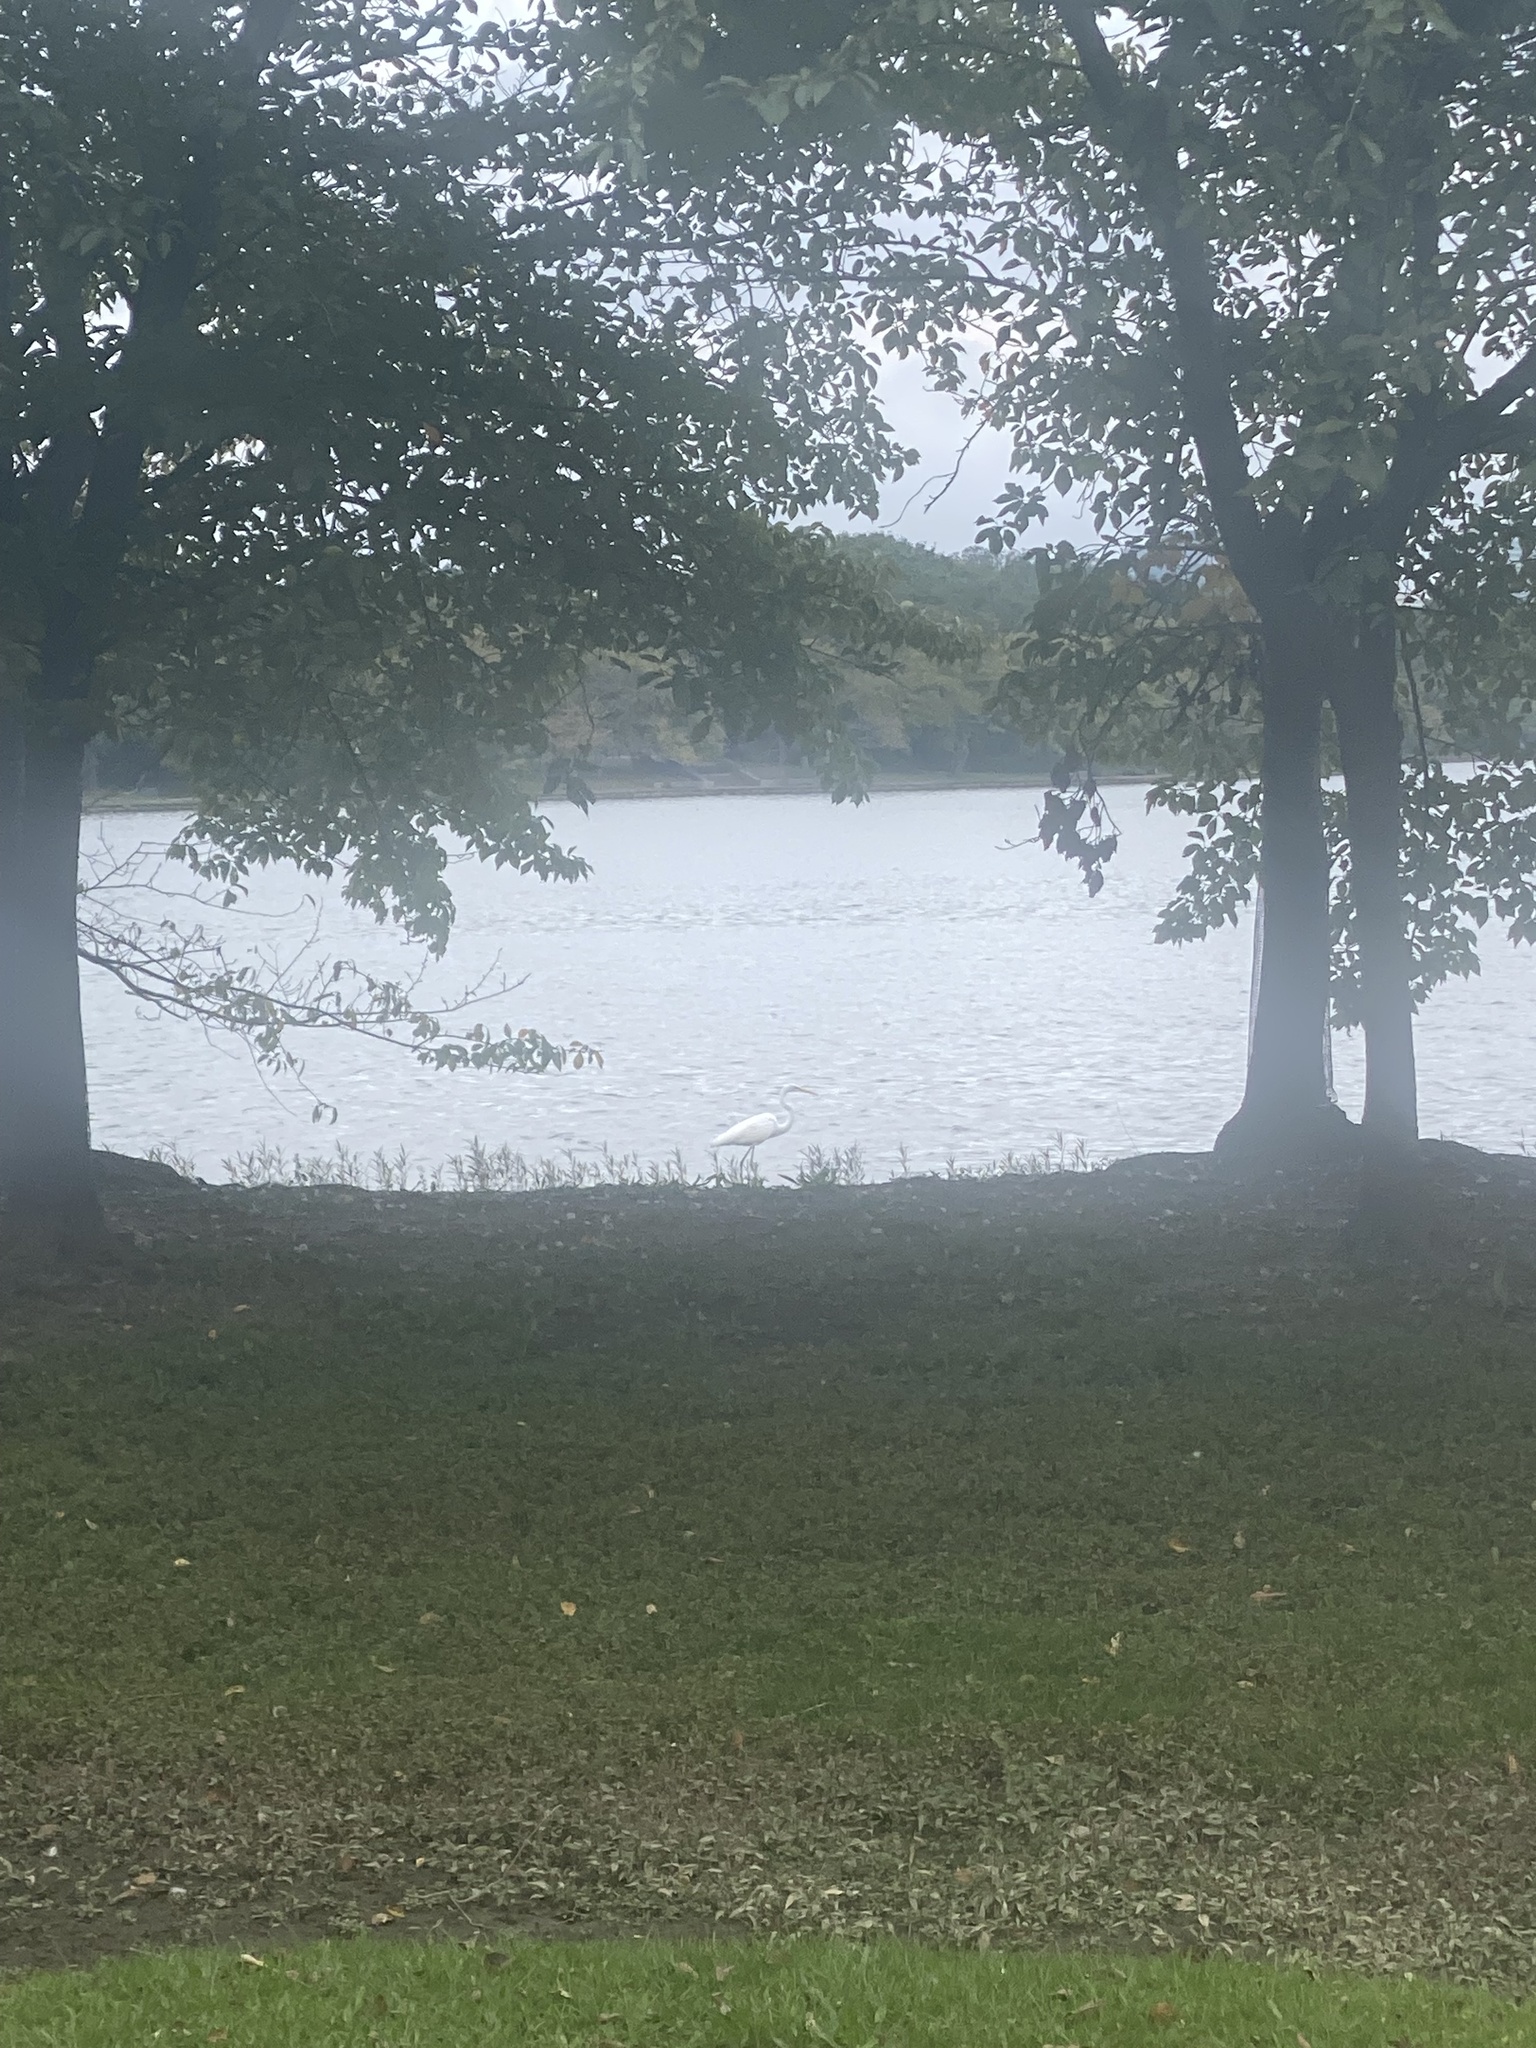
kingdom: Animalia
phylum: Chordata
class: Aves
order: Pelecaniformes
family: Ardeidae
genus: Ardea
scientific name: Ardea alba
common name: Great egret
